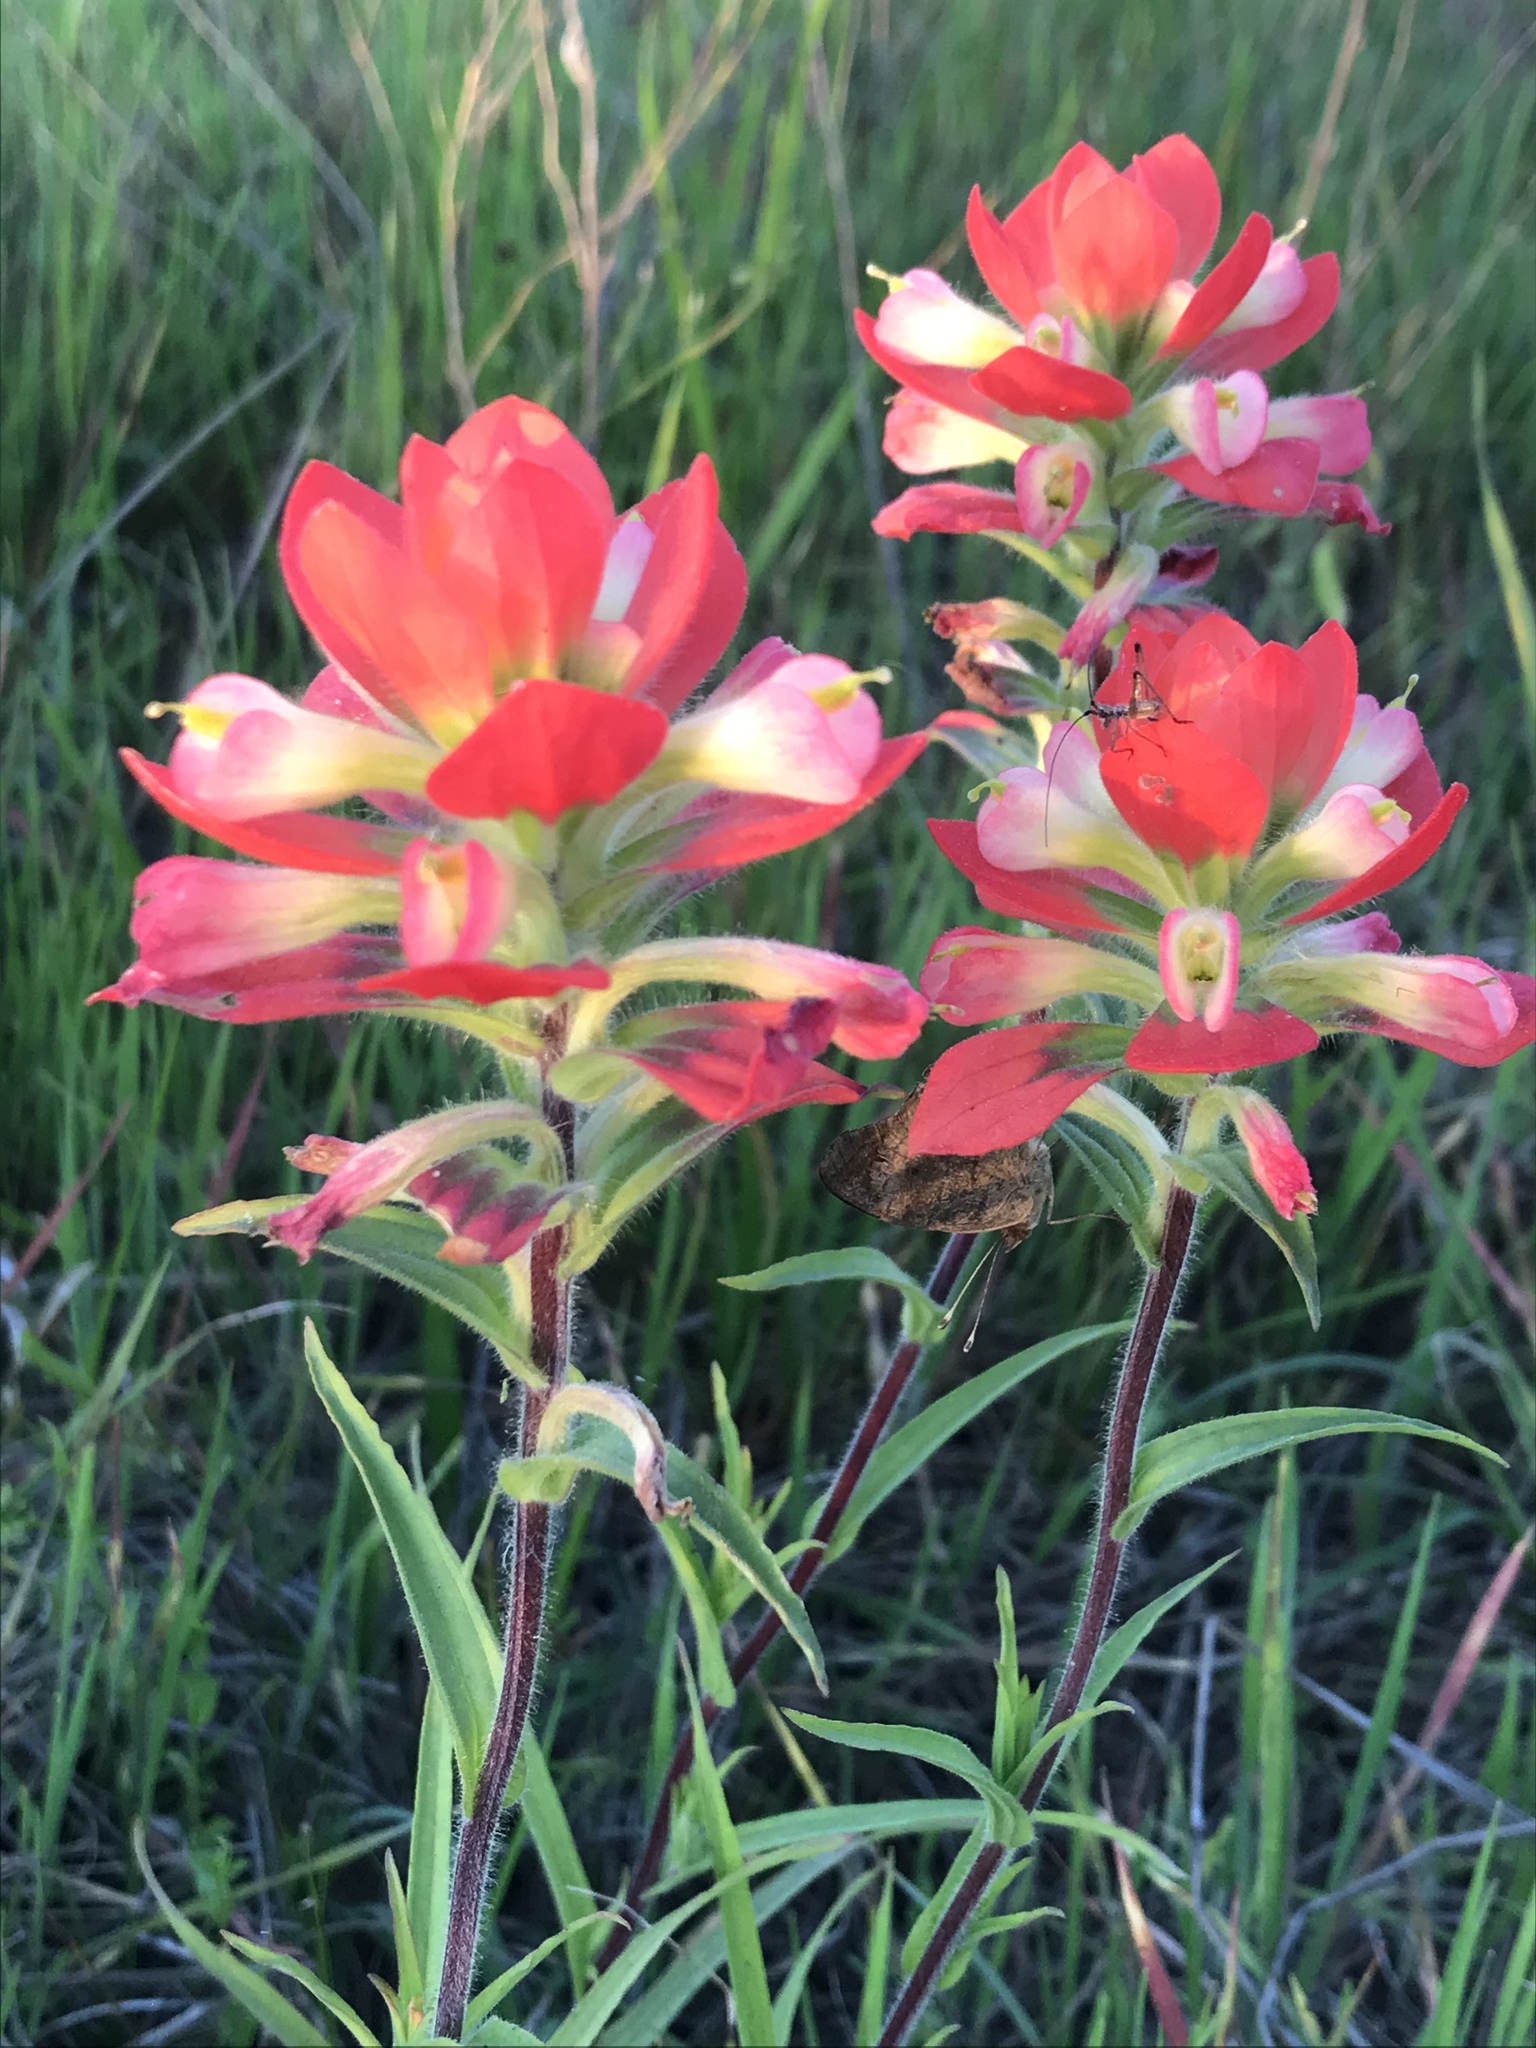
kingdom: Plantae
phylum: Tracheophyta
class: Magnoliopsida
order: Lamiales
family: Orobanchaceae
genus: Castilleja
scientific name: Castilleja indivisa
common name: Texas paintbrush
